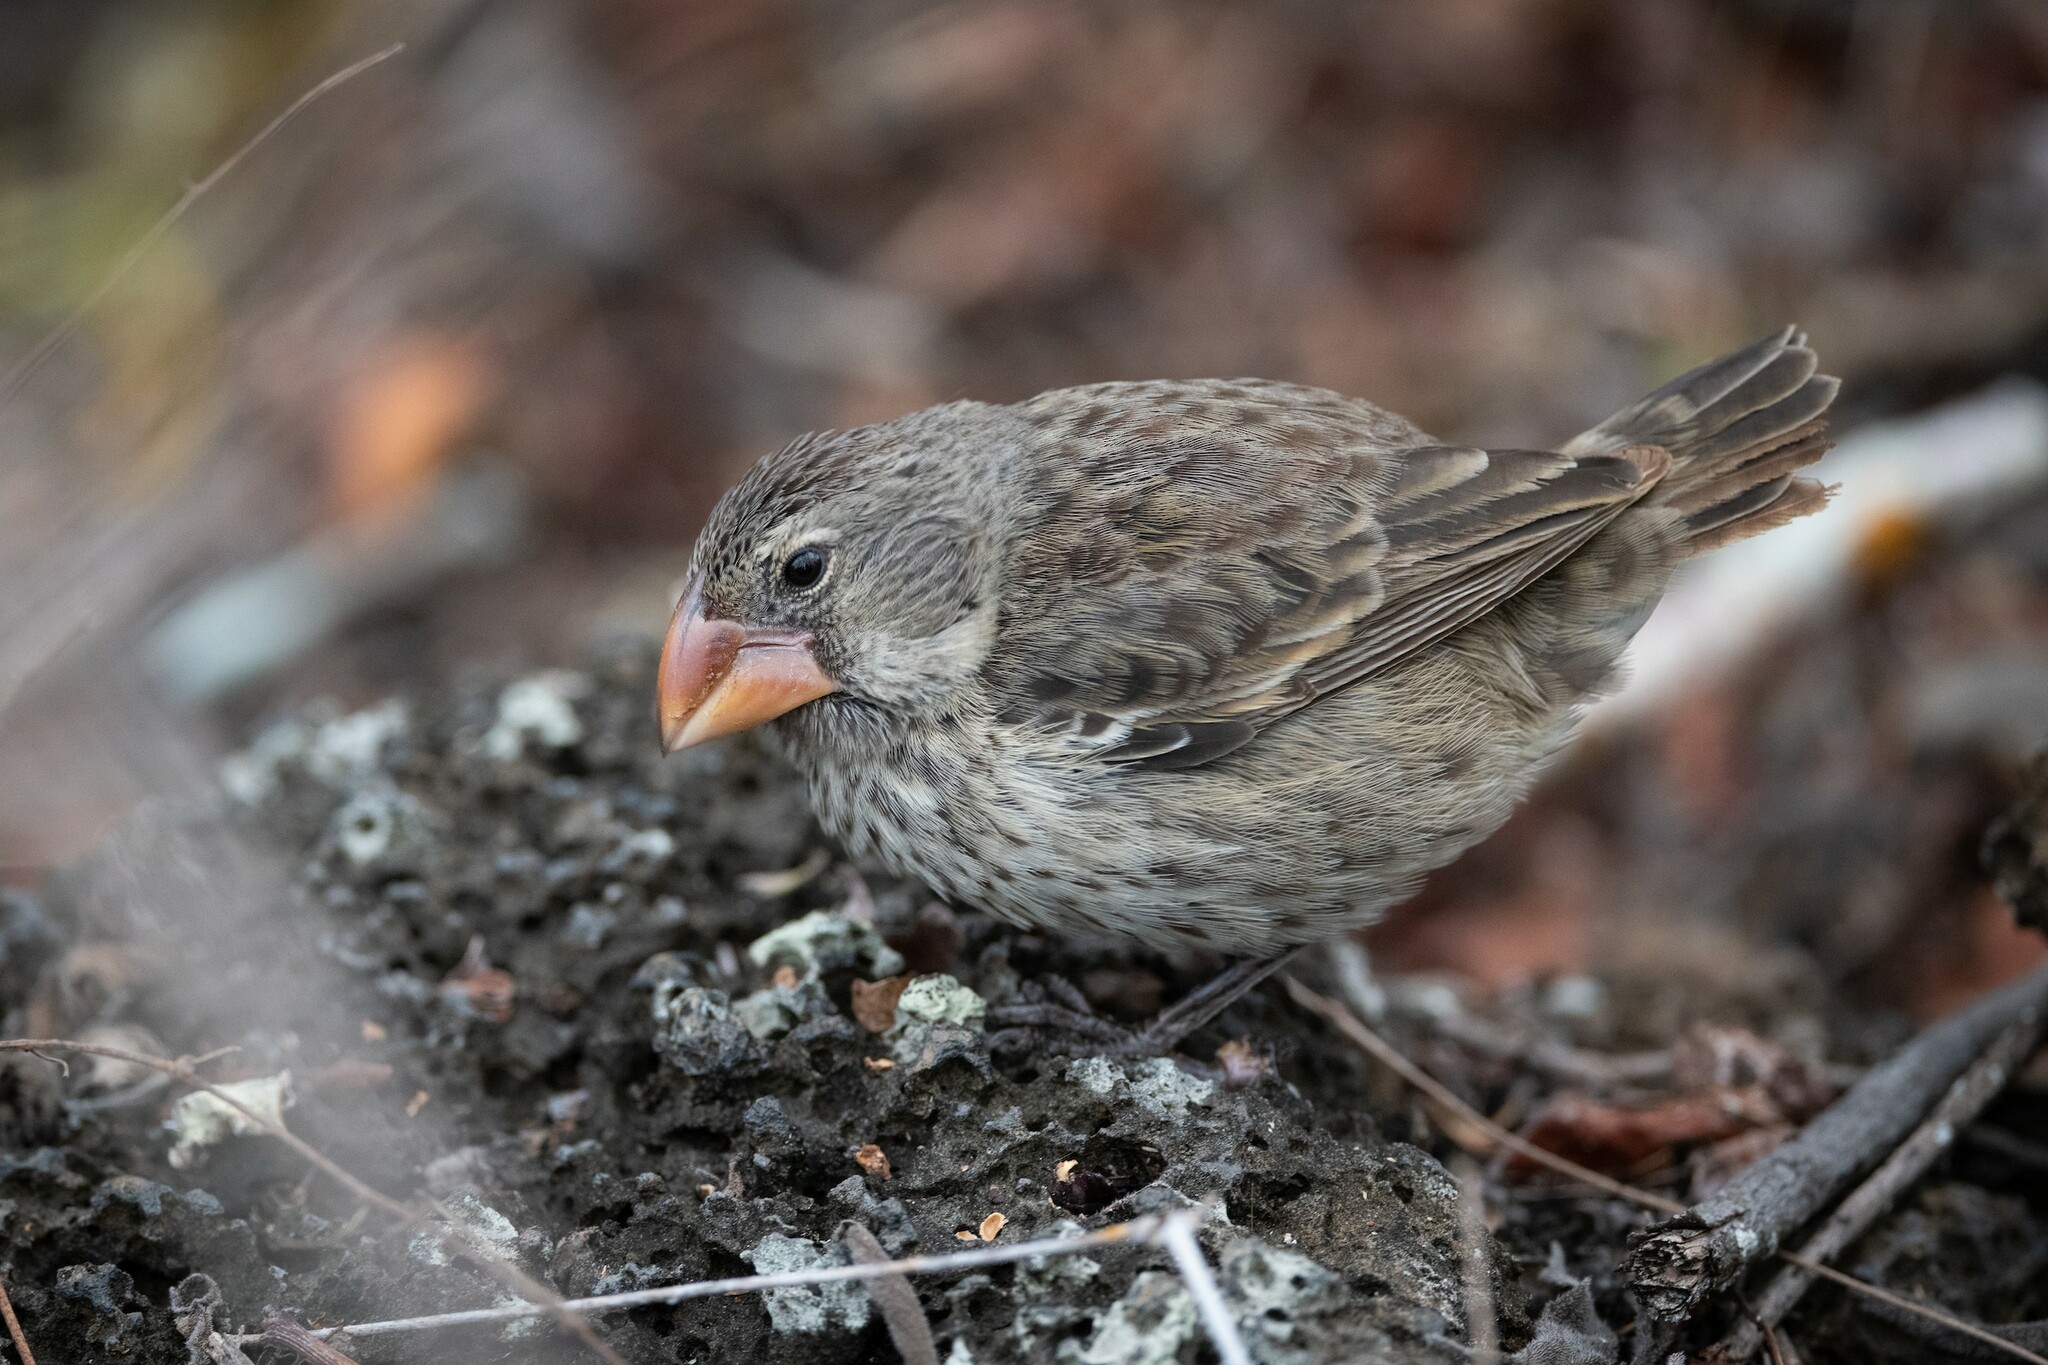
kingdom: Animalia
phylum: Chordata
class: Aves
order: Passeriformes
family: Thraupidae
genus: Geospiza
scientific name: Geospiza magnirostris
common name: Large ground-finch
